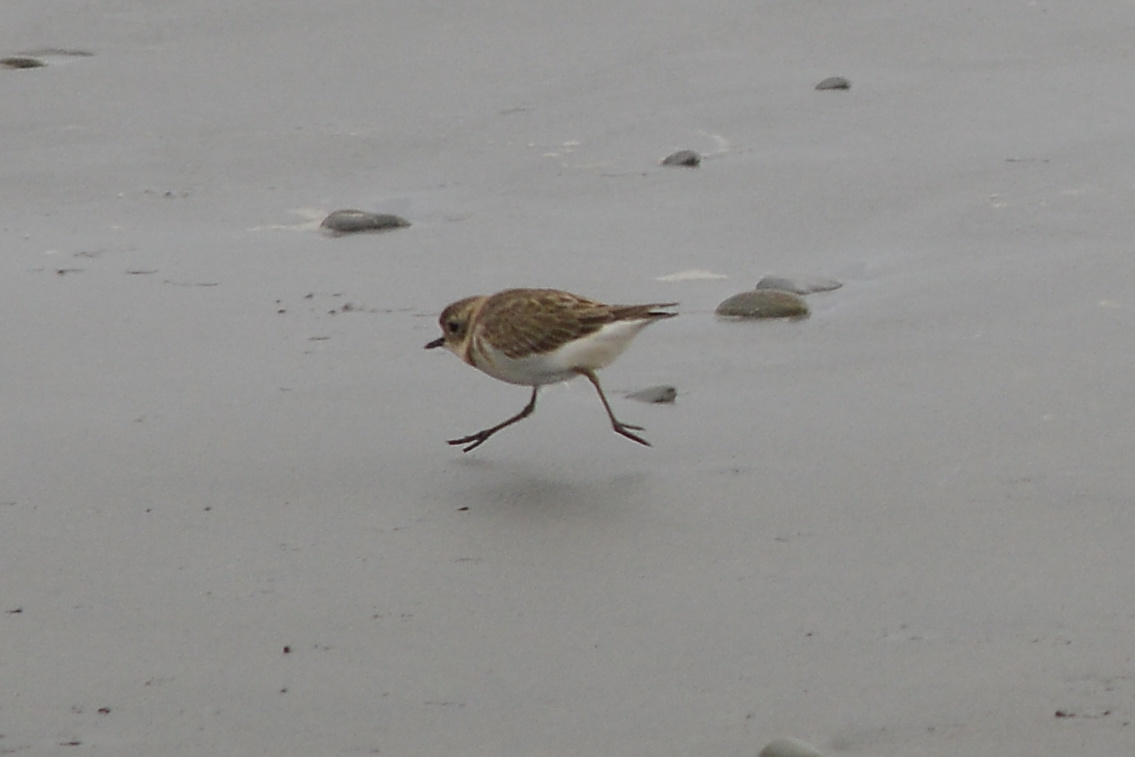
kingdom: Animalia
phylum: Chordata
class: Aves
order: Charadriiformes
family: Charadriidae
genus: Anarhynchus
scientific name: Anarhynchus
